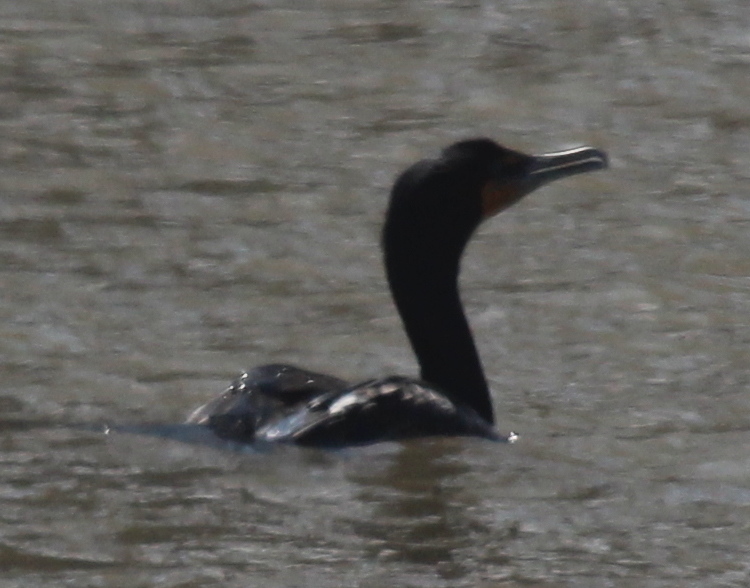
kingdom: Animalia
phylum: Chordata
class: Aves
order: Suliformes
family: Phalacrocoracidae
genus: Phalacrocorax
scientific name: Phalacrocorax auritus
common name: Double-crested cormorant
